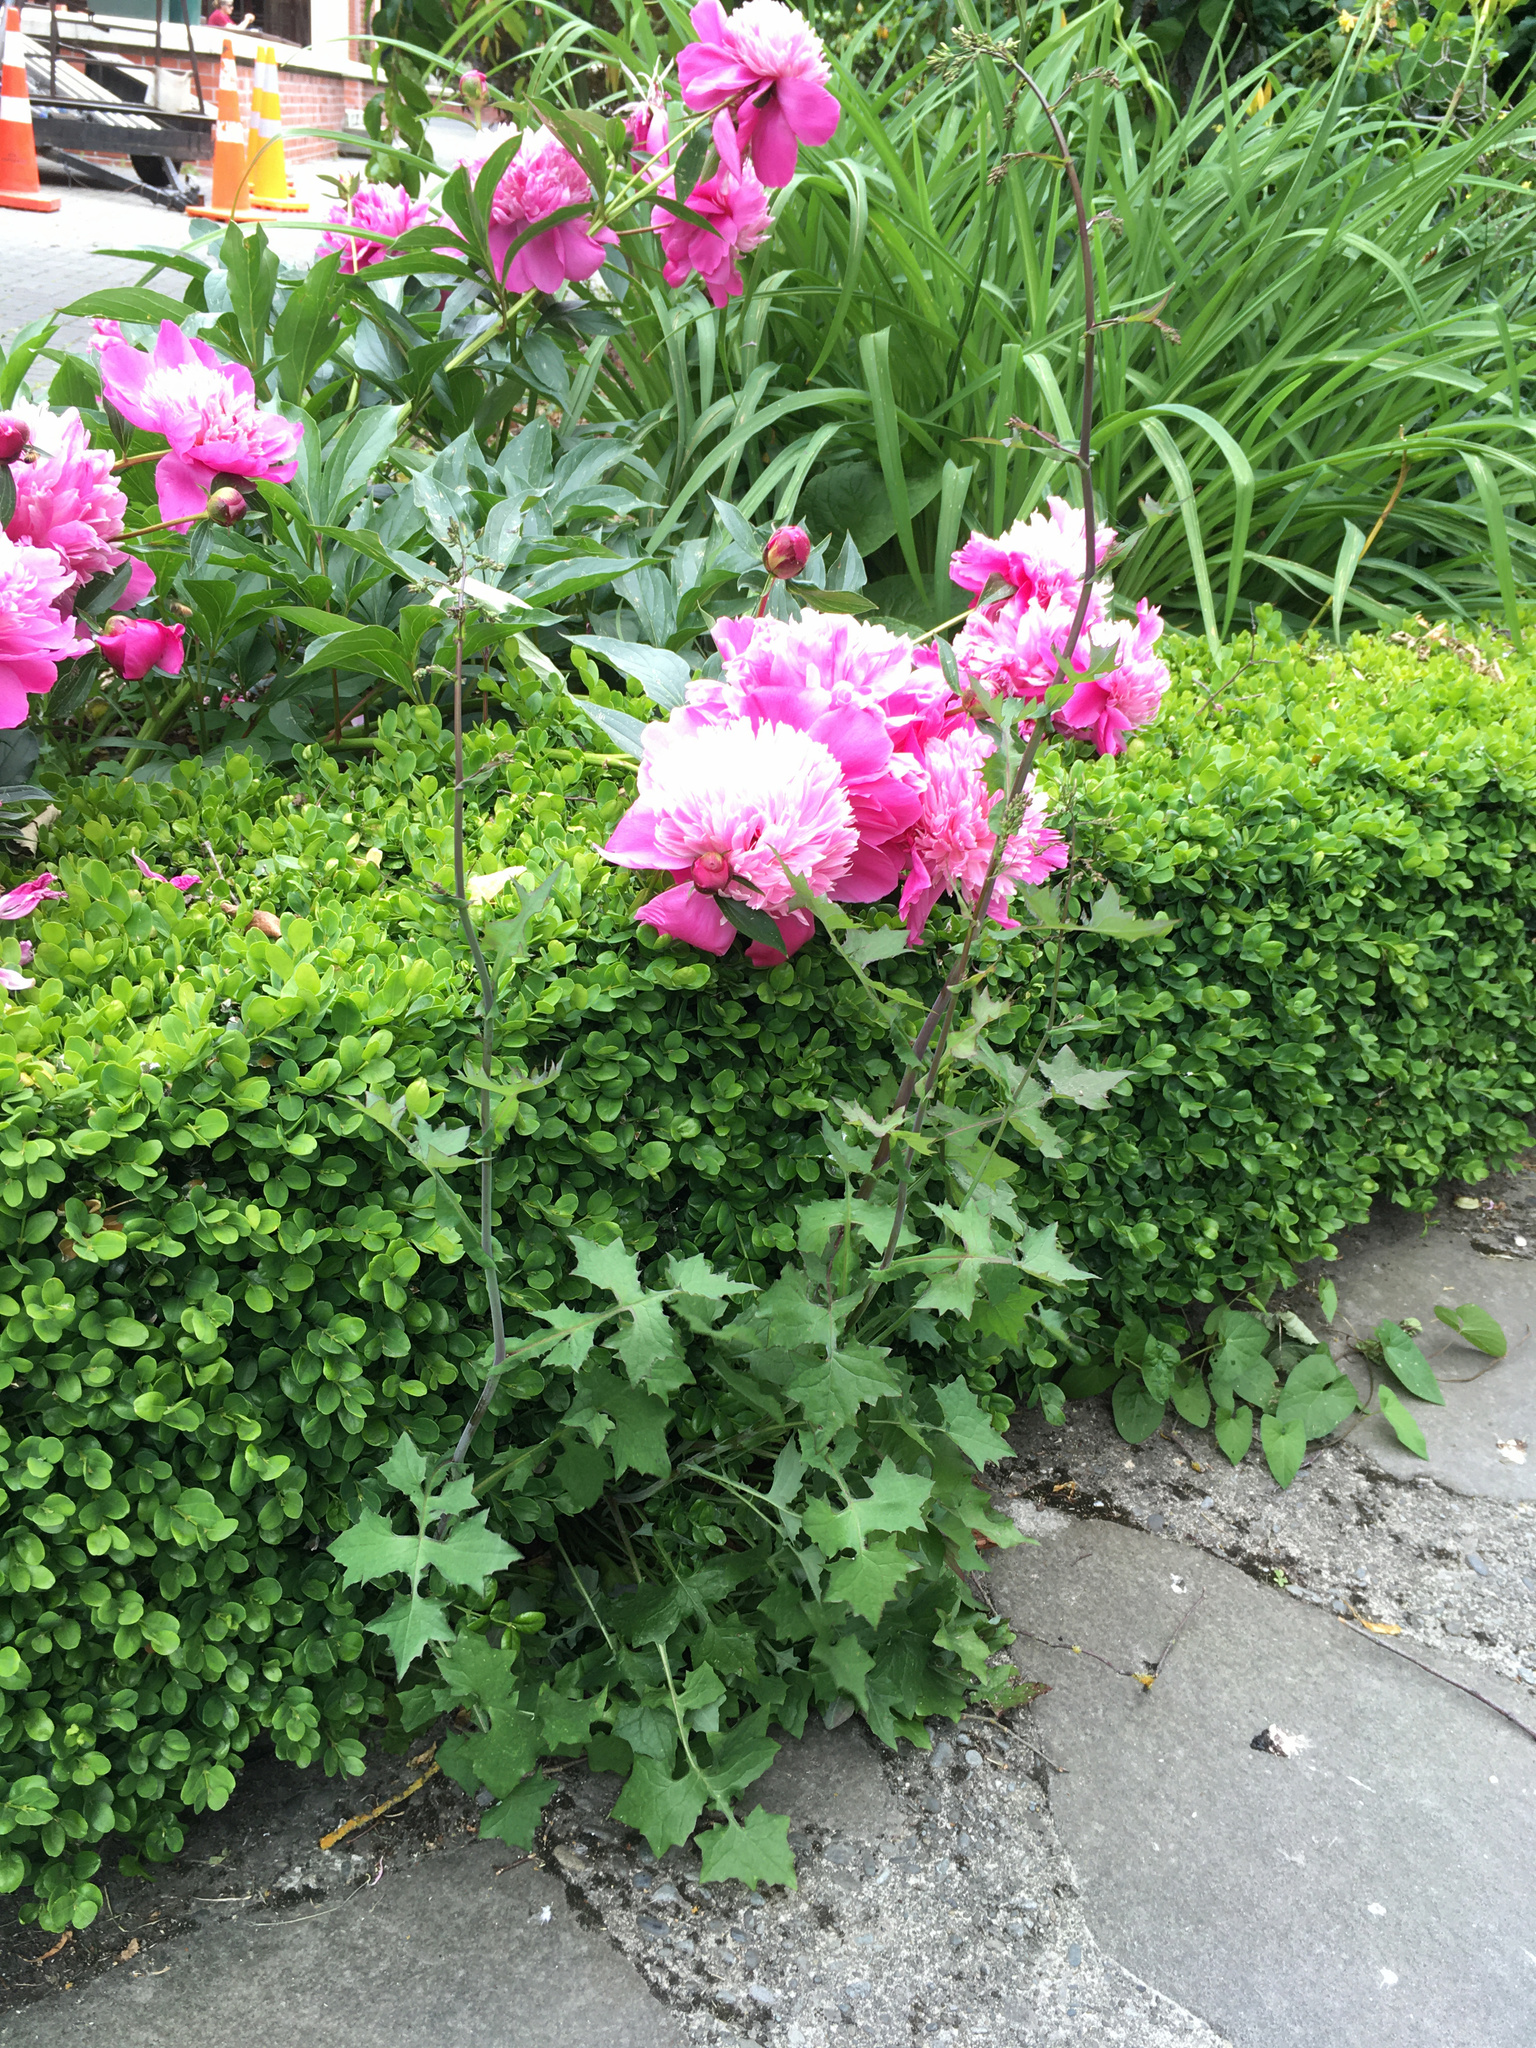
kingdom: Plantae
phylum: Tracheophyta
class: Magnoliopsida
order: Asterales
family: Asteraceae
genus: Mycelis
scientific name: Mycelis muralis
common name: Wall lettuce
